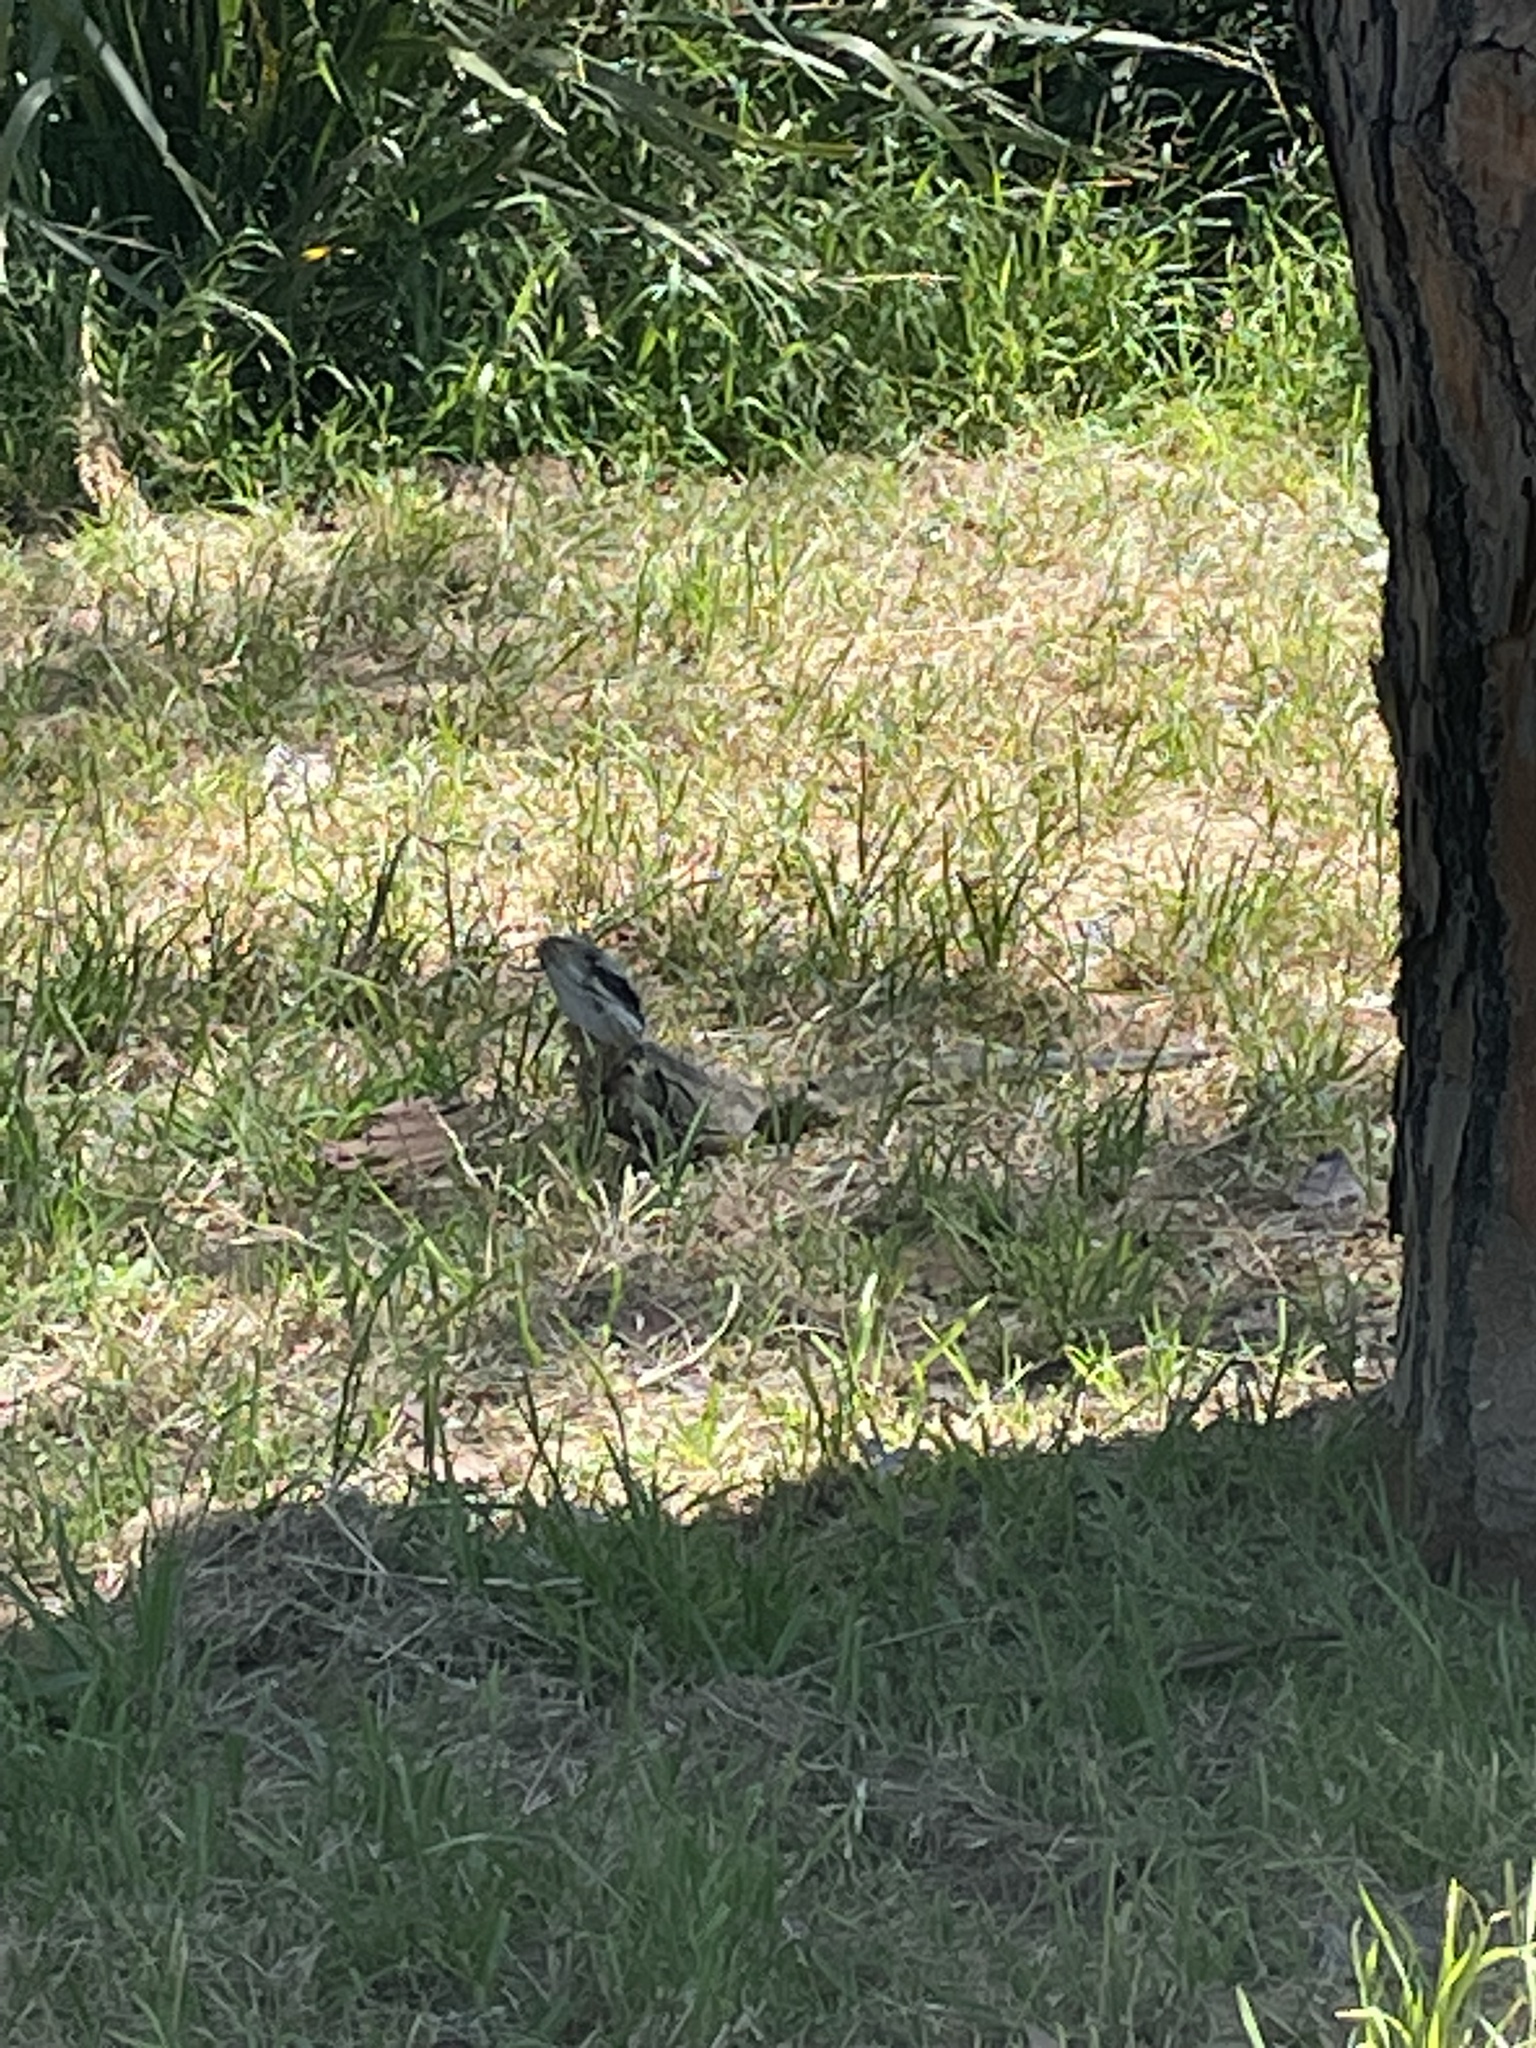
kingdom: Animalia
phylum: Chordata
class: Squamata
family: Agamidae
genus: Intellagama
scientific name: Intellagama lesueurii
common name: Eastern water dragon
